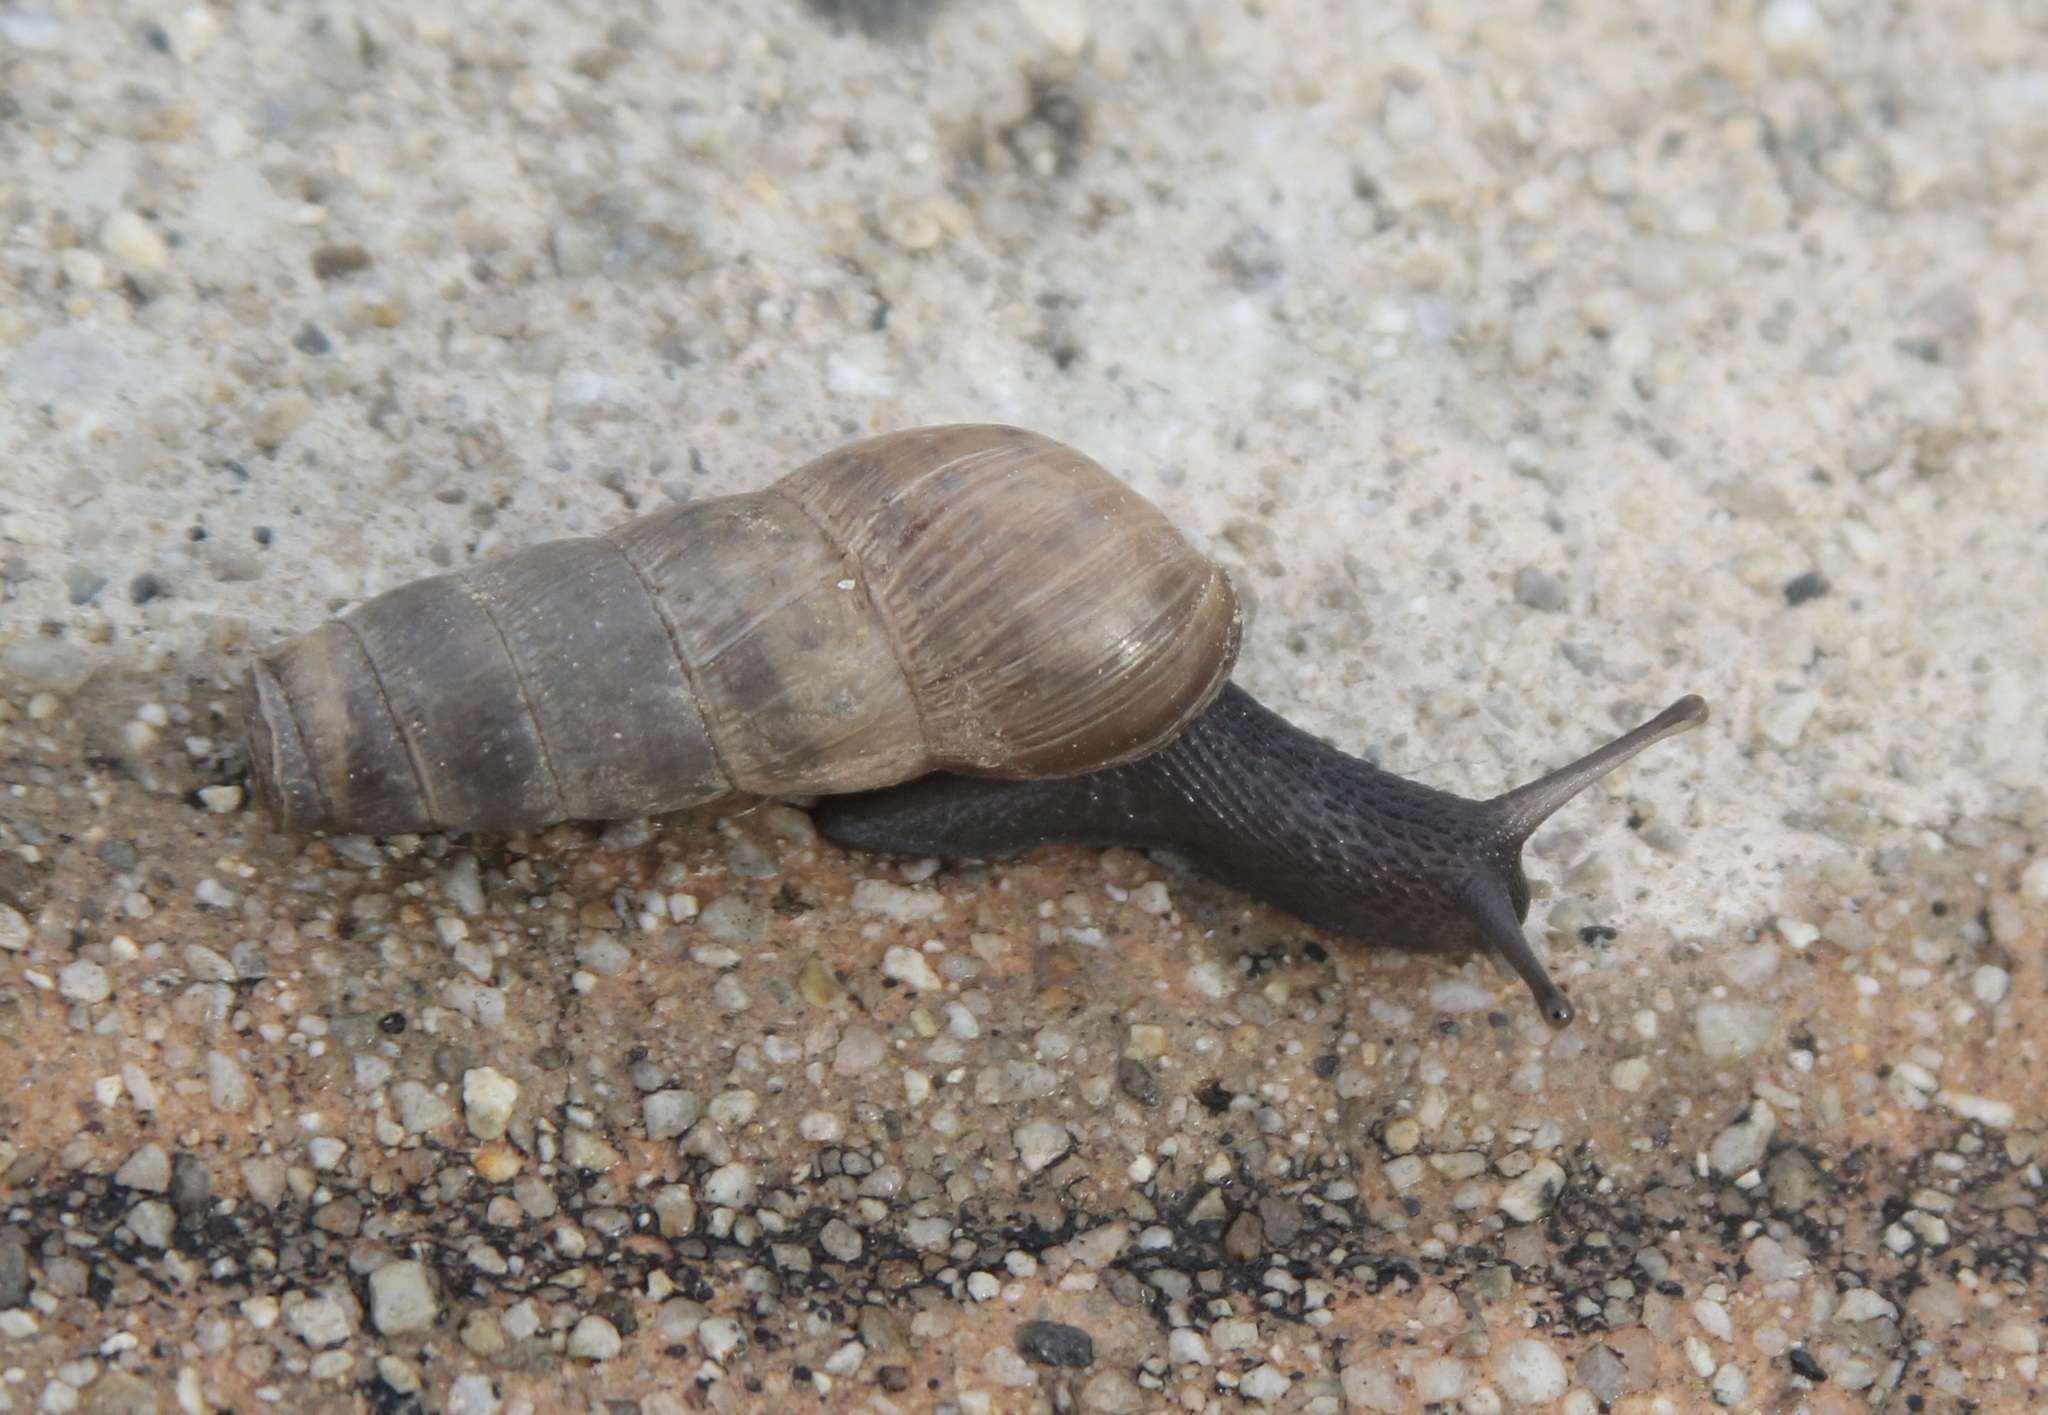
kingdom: Animalia
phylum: Mollusca
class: Gastropoda
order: Stylommatophora
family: Achatinidae
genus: Rumina
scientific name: Rumina decollata
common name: Decollate snail
